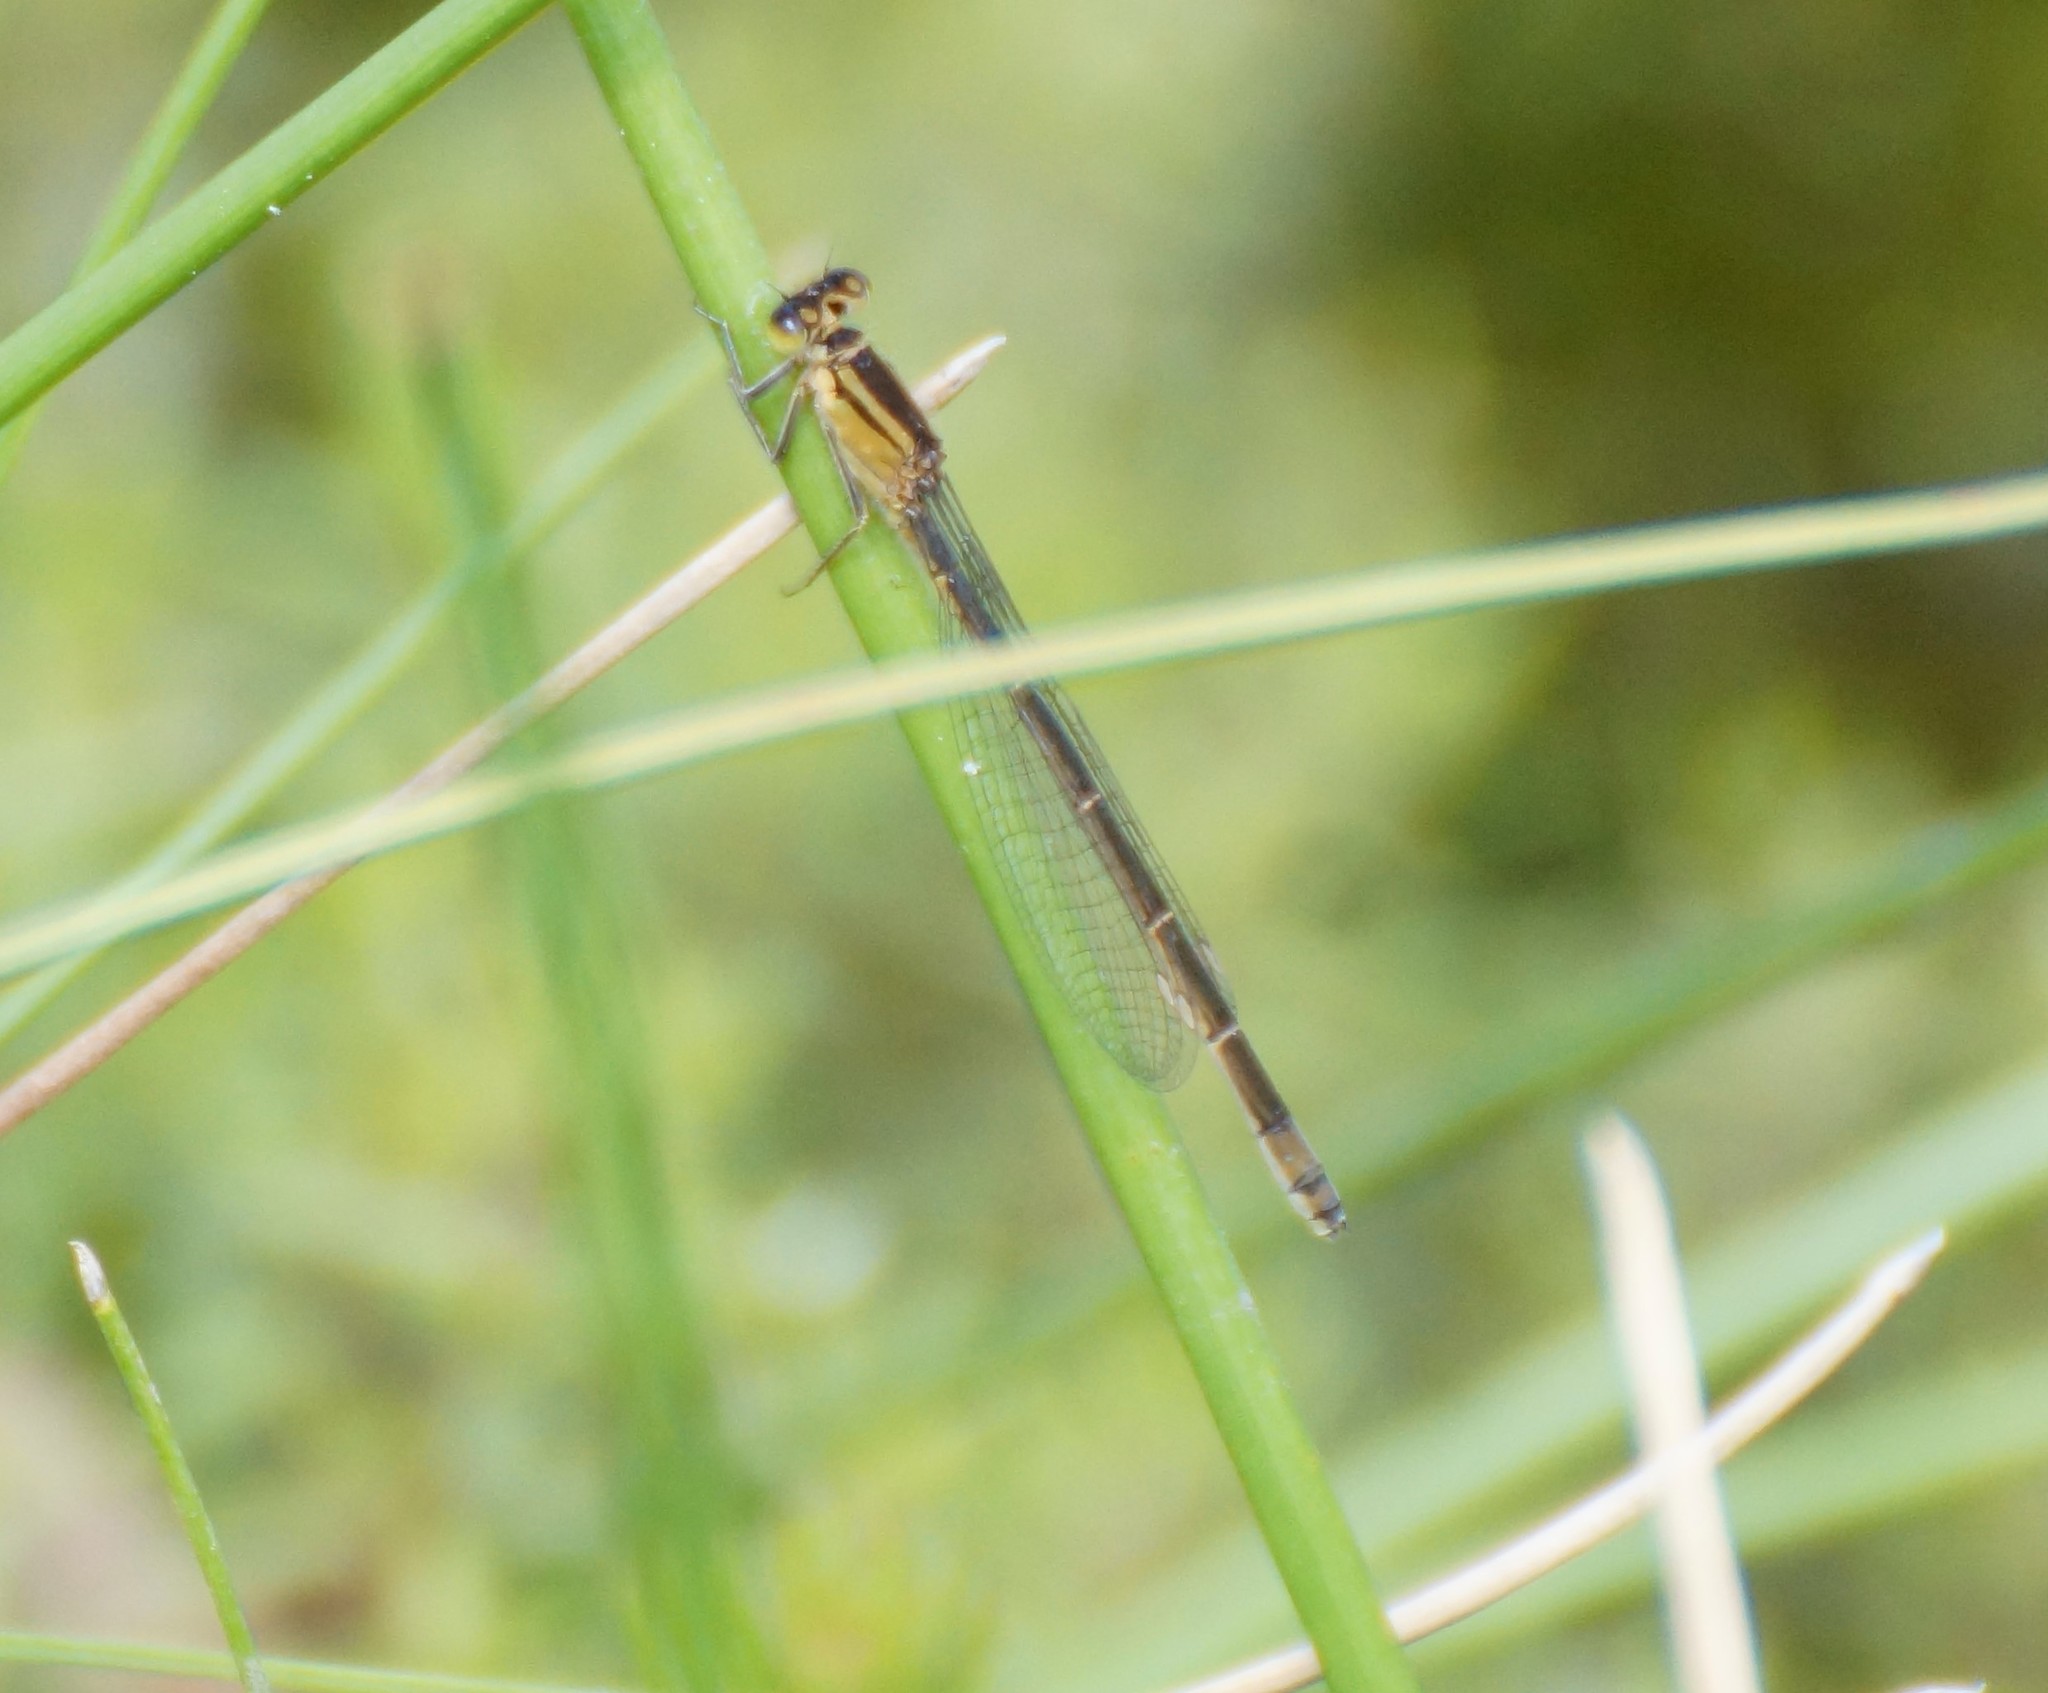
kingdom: Animalia
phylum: Arthropoda
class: Insecta
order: Odonata
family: Coenagrionidae
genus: Ischnura
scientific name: Ischnura heterosticta
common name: Common bluetail
